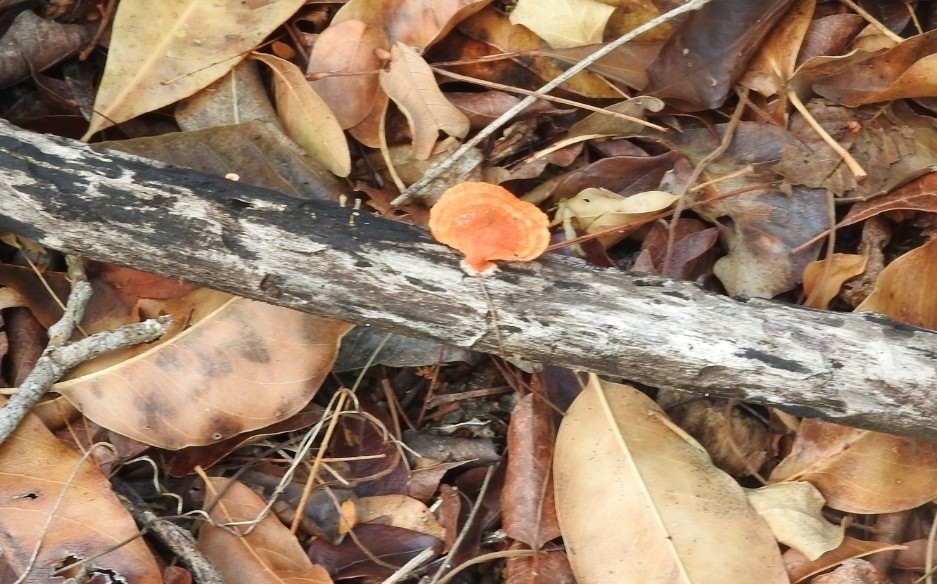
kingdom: Fungi
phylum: Basidiomycota
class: Agaricomycetes
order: Polyporales
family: Polyporaceae
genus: Trametes
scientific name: Trametes cinnabarina
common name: Northern cinnabar polypore
